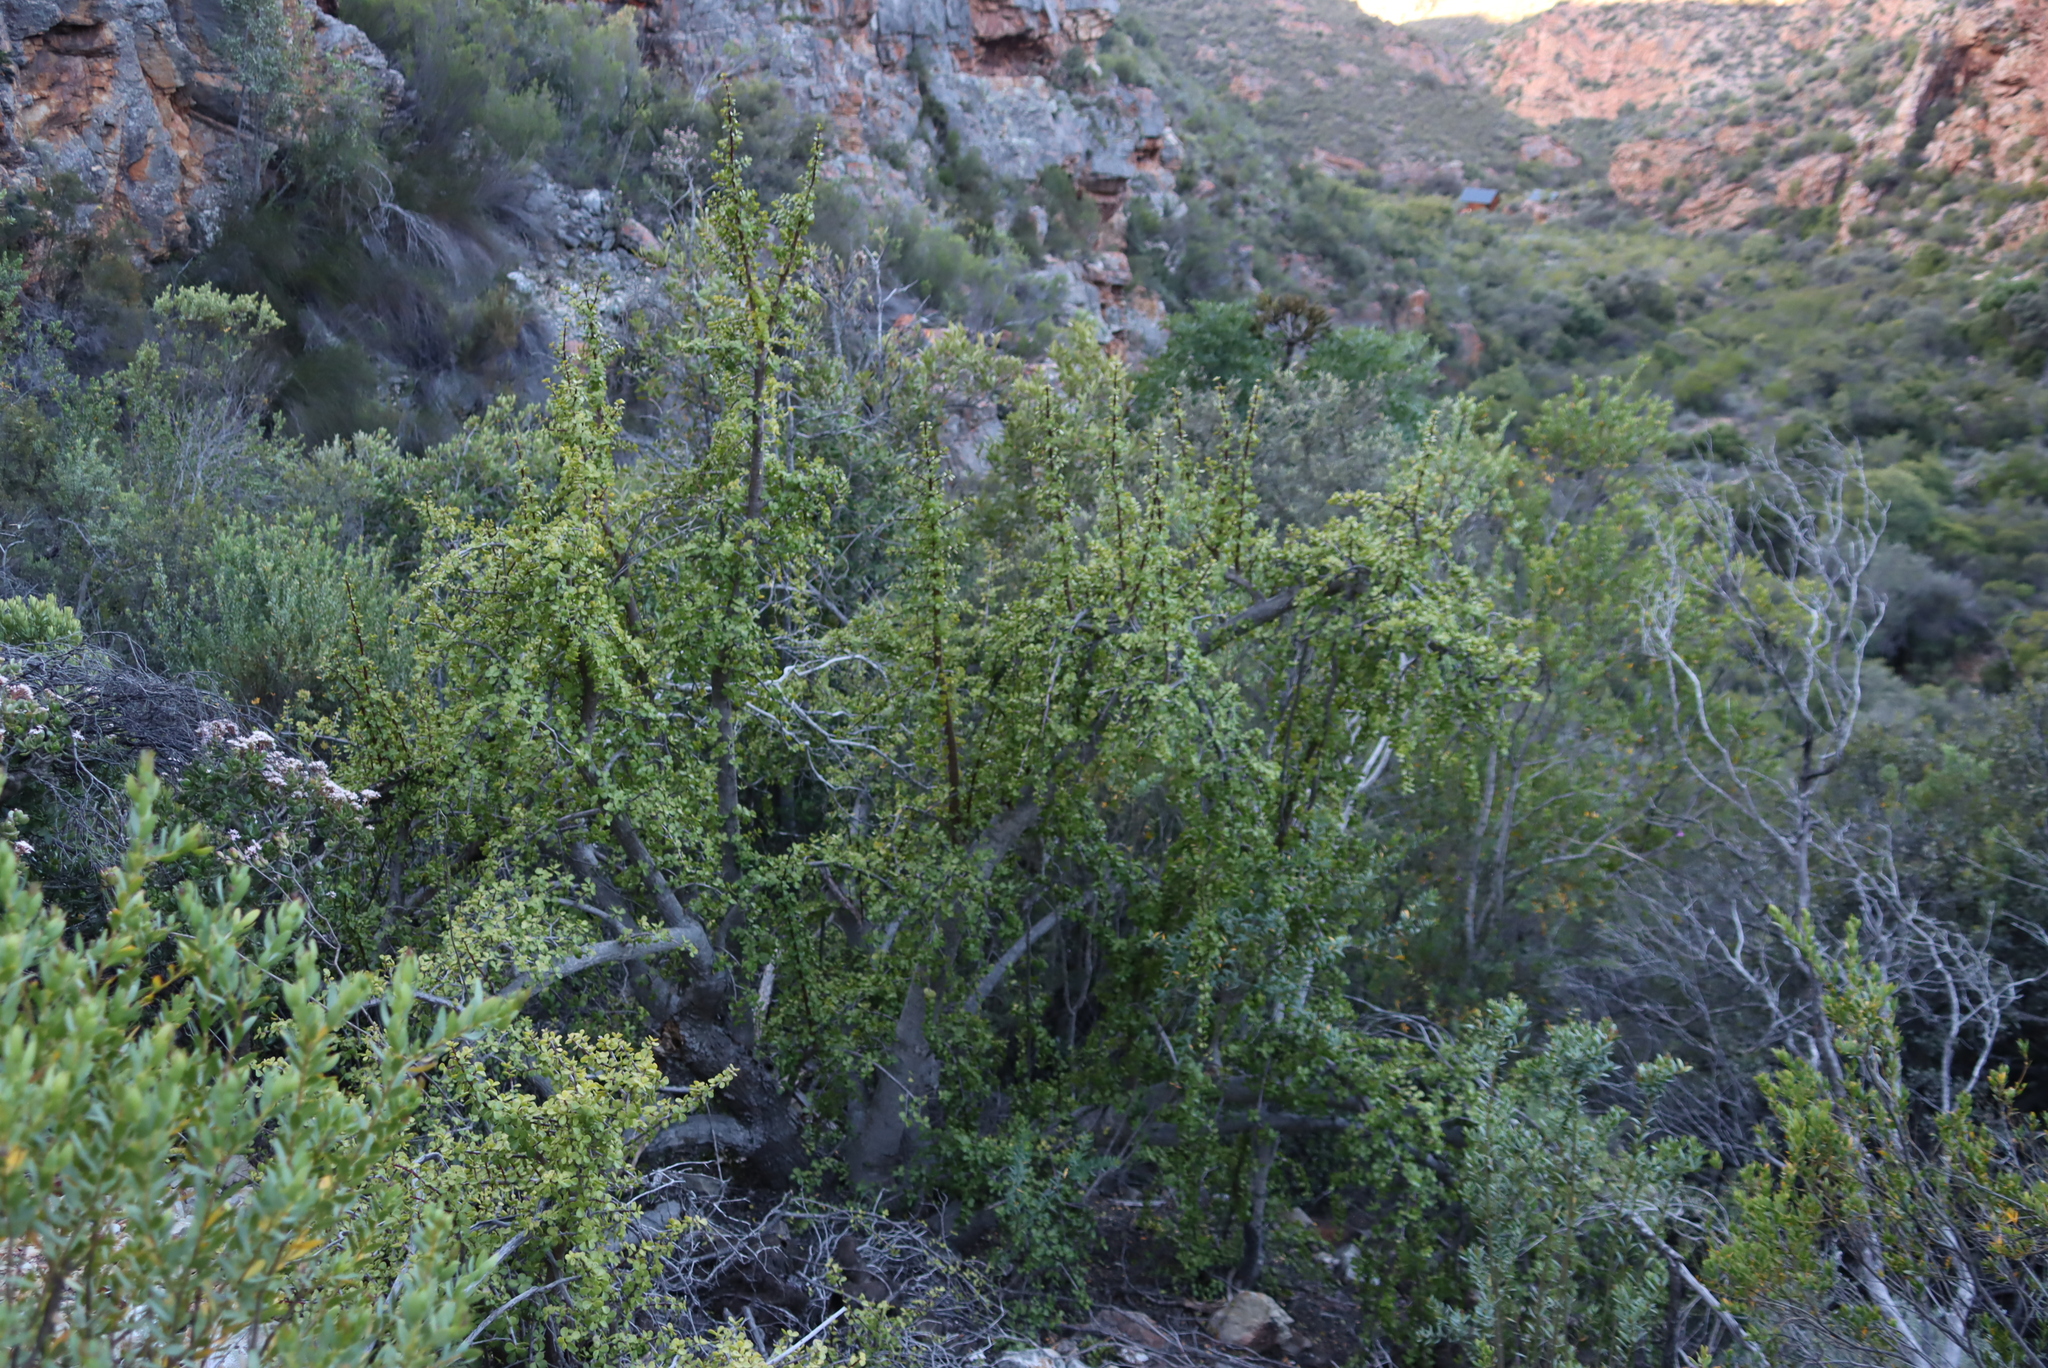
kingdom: Plantae
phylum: Tracheophyta
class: Magnoliopsida
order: Caryophyllales
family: Didiereaceae
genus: Portulacaria
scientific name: Portulacaria afra
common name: Elephant-bush
